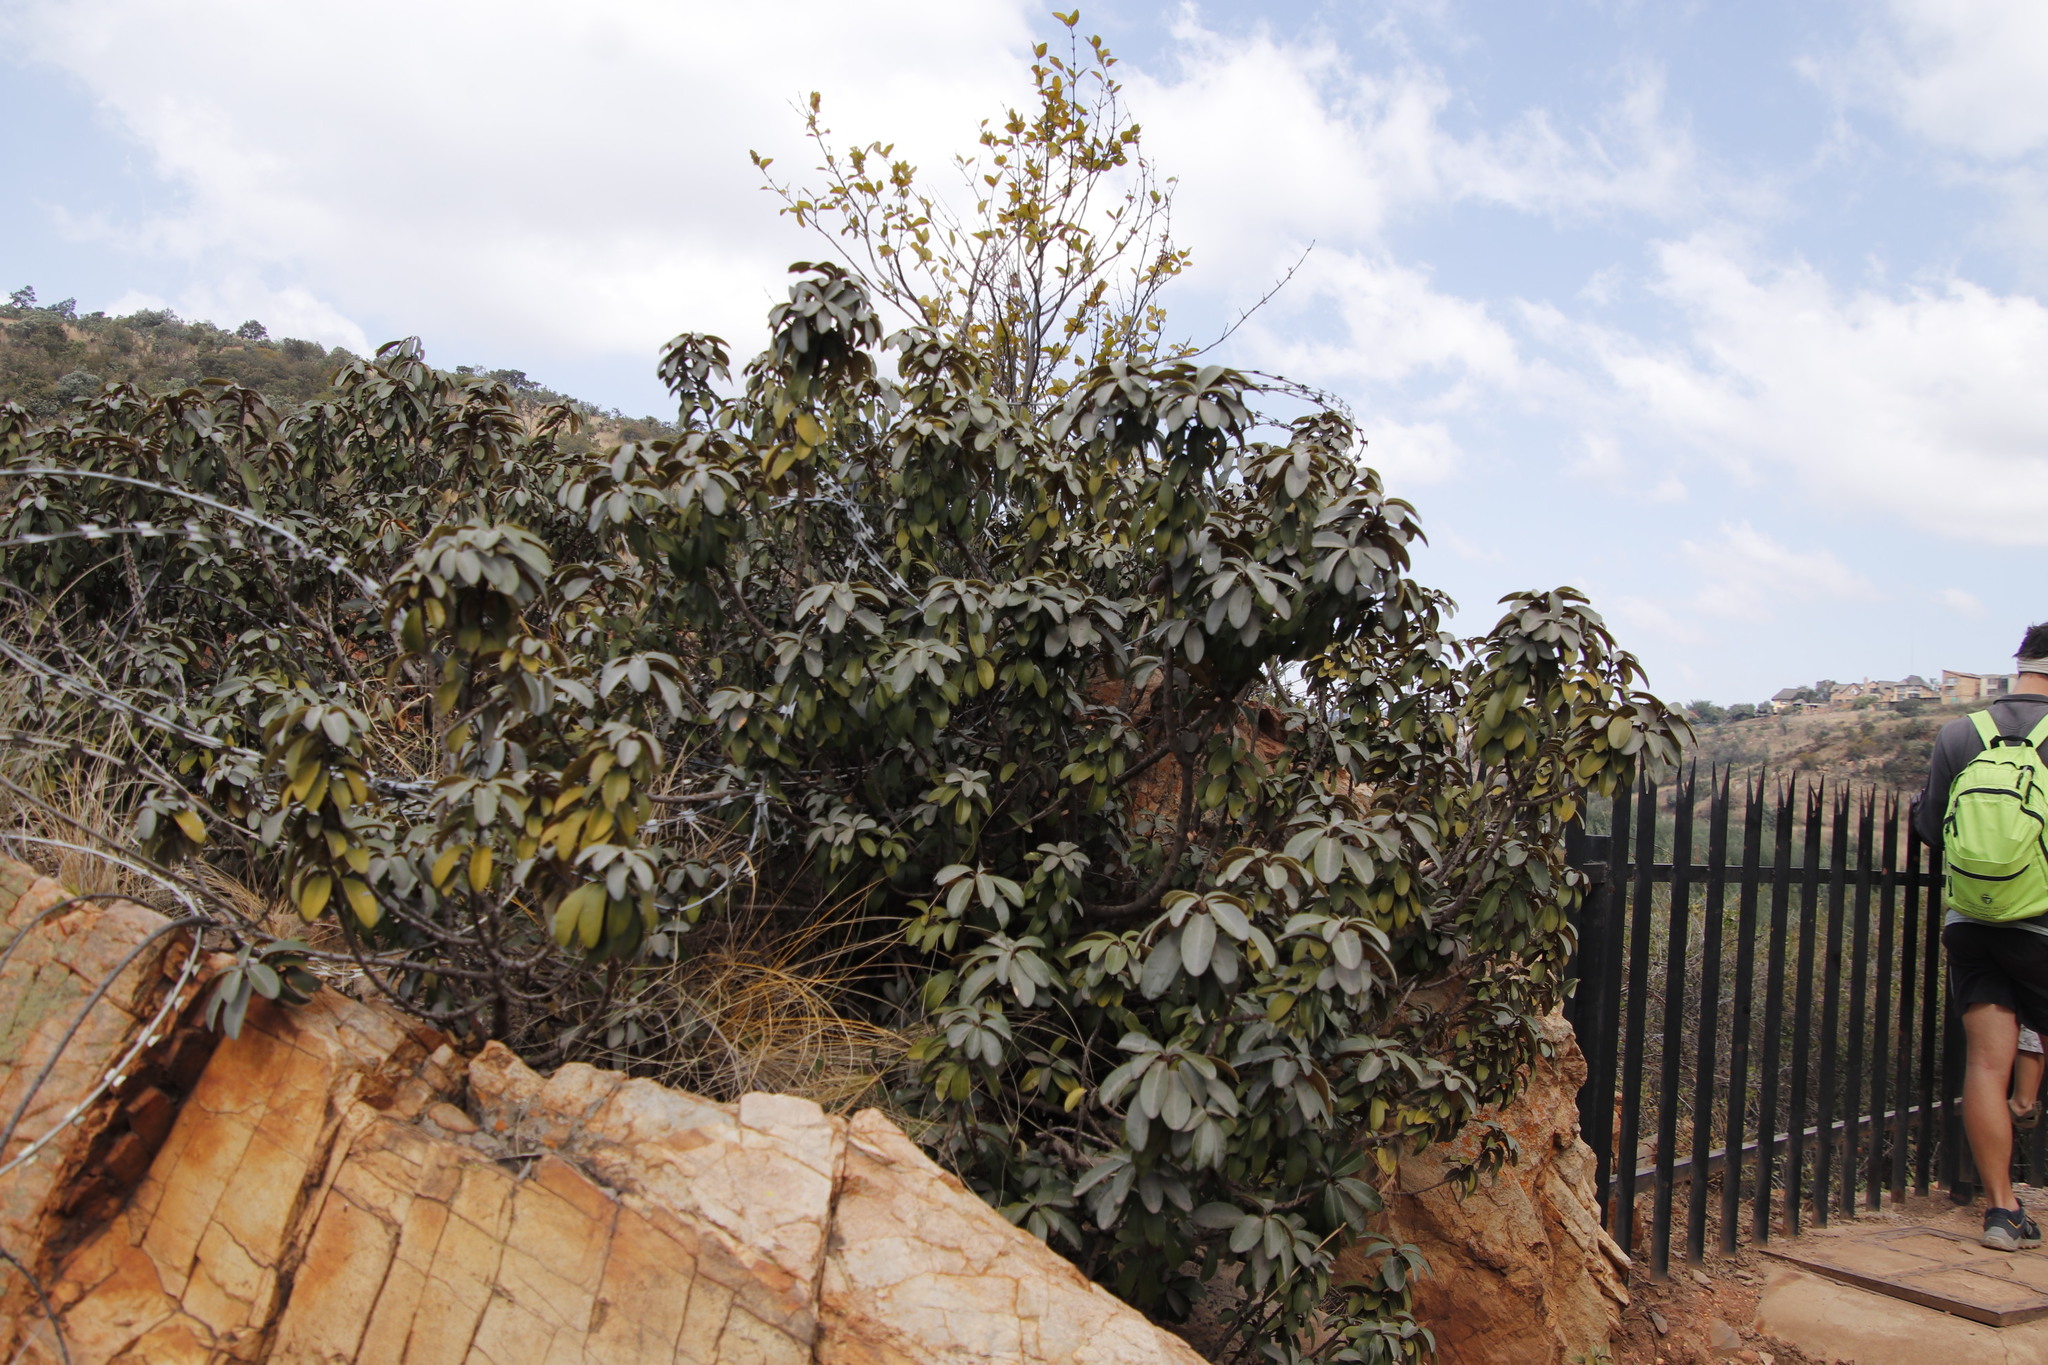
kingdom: Plantae
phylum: Tracheophyta
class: Magnoliopsida
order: Ericales
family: Sapotaceae
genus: Englerophytum
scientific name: Englerophytum magalismontanum
